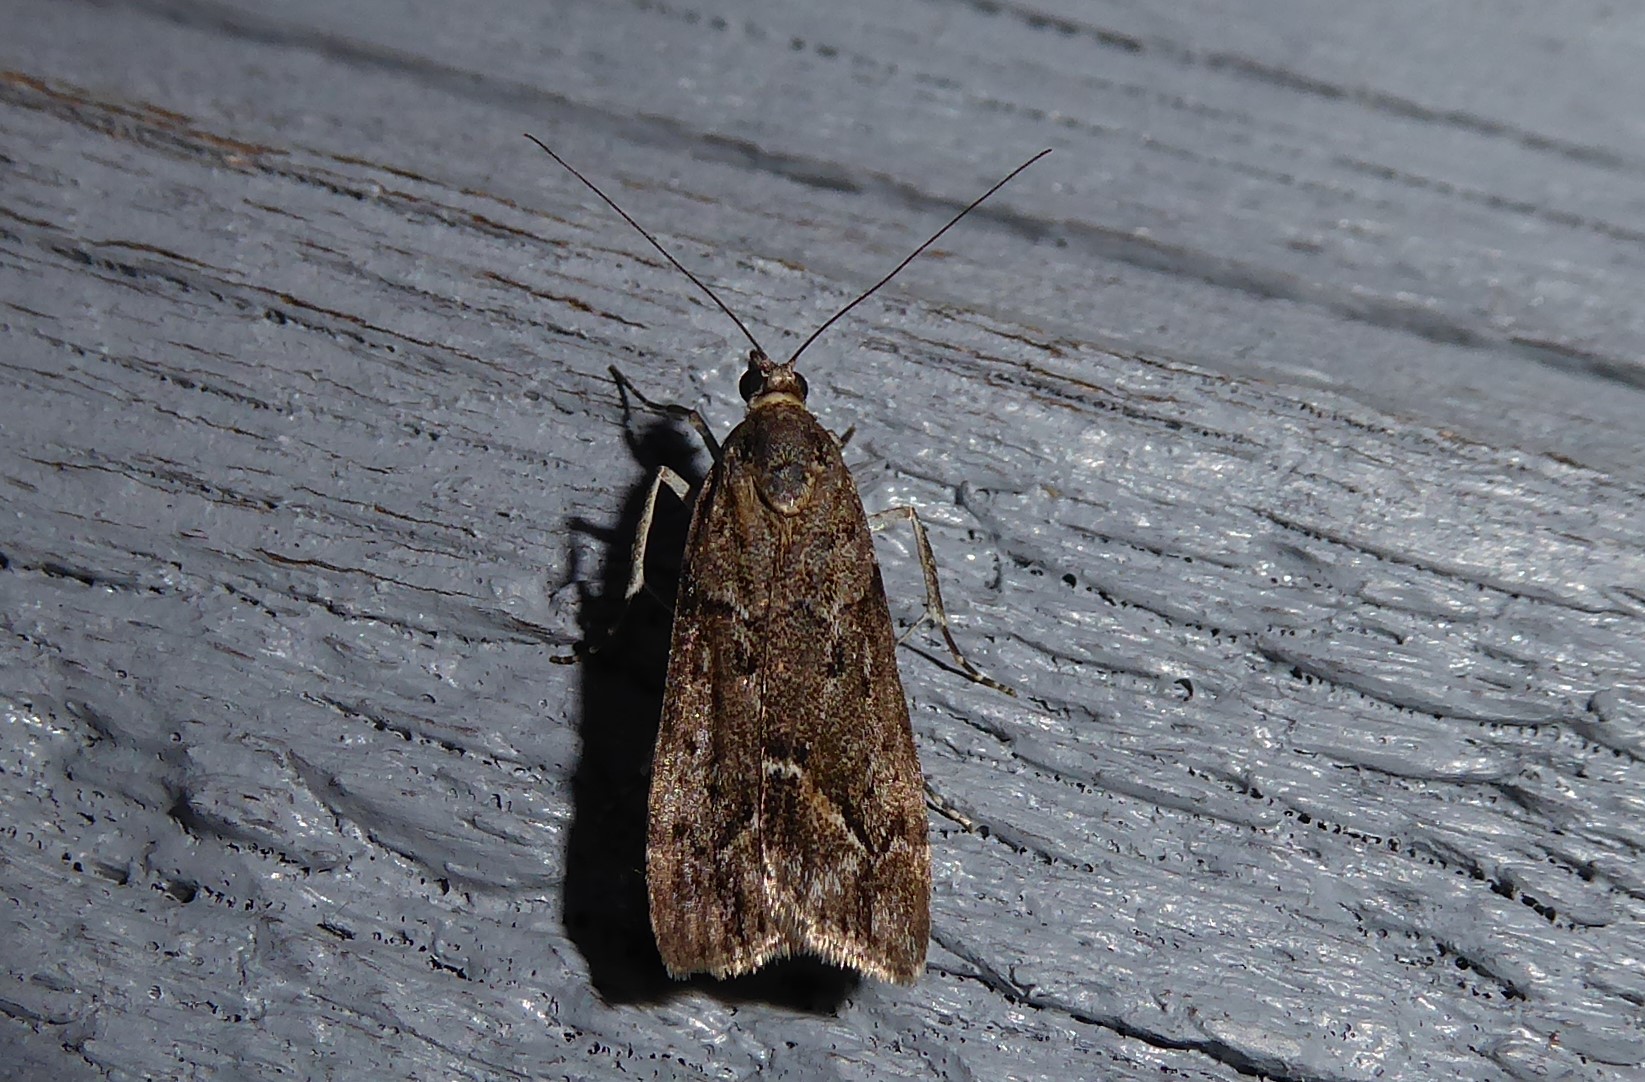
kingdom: Animalia
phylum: Arthropoda
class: Insecta
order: Lepidoptera
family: Crambidae
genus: Eudonia
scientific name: Eudonia submarginalis
